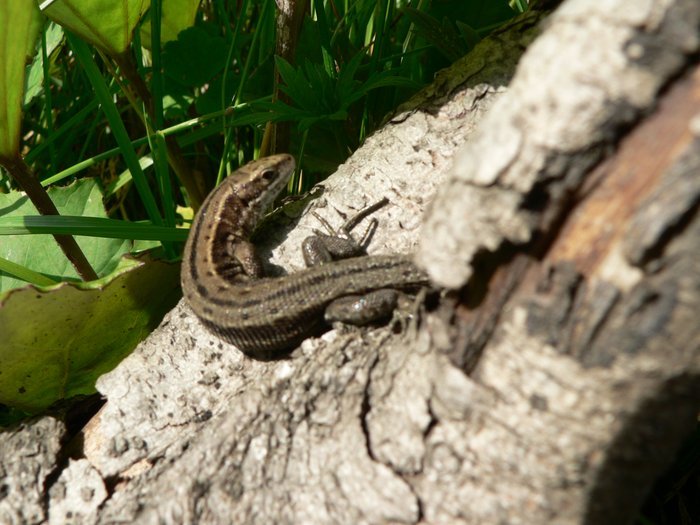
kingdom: Animalia
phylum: Chordata
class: Squamata
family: Lacertidae
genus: Zootoca
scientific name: Zootoca vivipara
